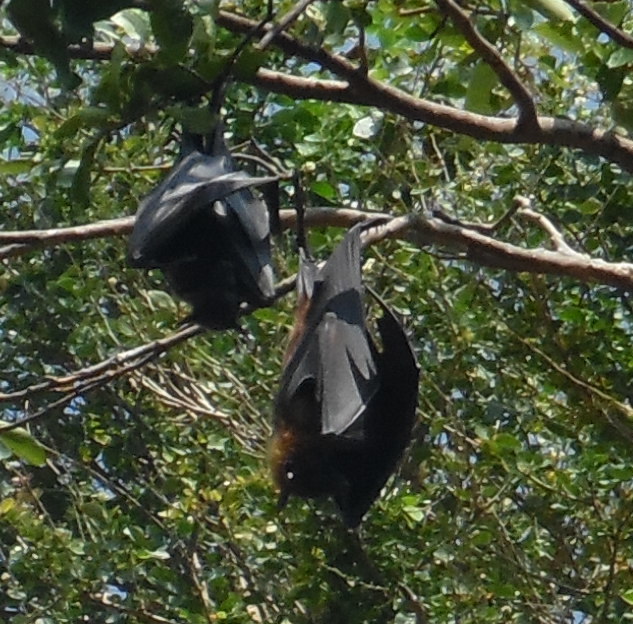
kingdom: Animalia
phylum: Chordata
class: Mammalia
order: Chiroptera
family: Pteropodidae
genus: Pteropus
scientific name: Pteropus vampyrus
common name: Large flying fox
